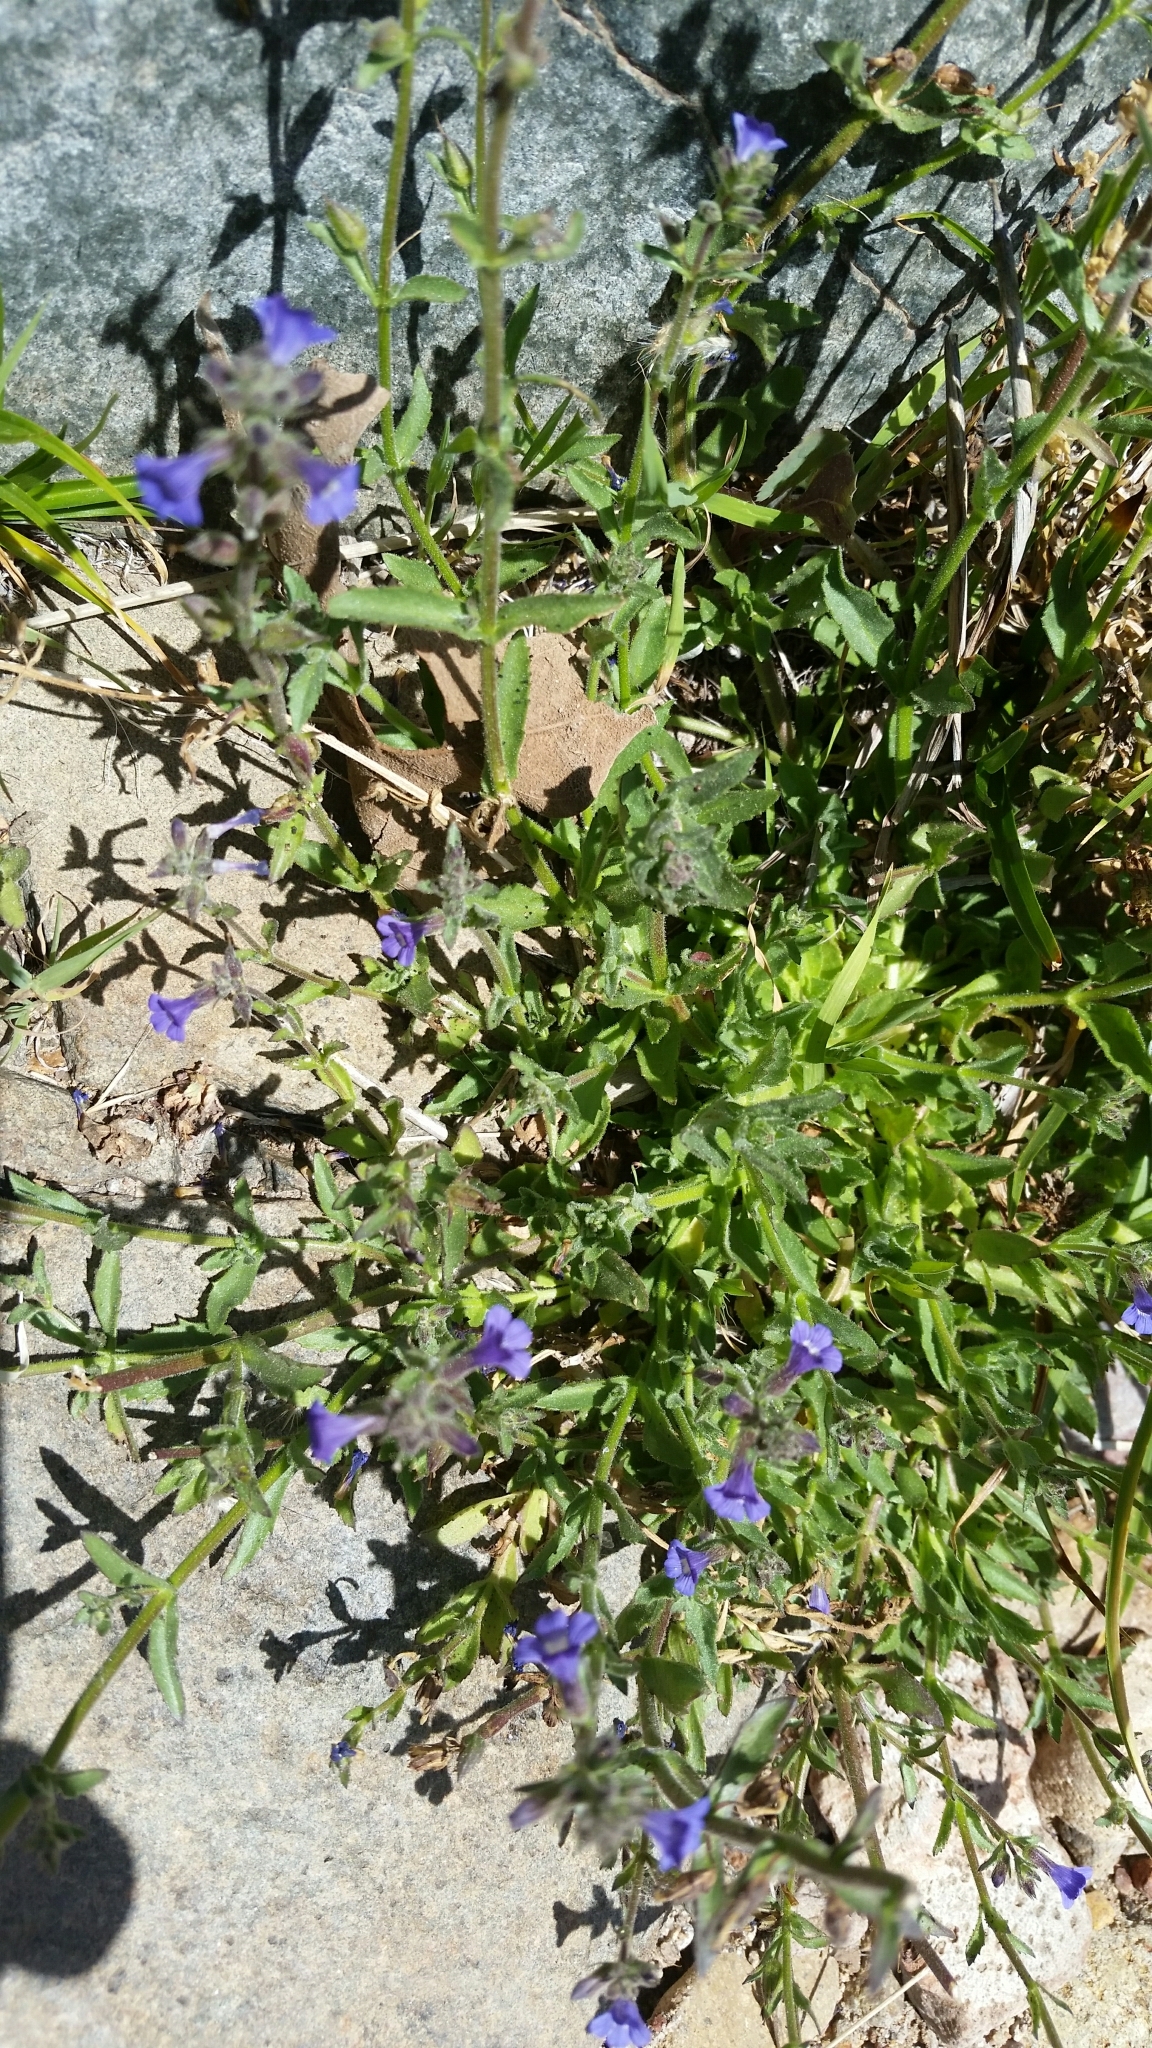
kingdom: Plantae
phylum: Tracheophyta
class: Magnoliopsida
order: Lamiales
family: Plantaginaceae
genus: Stemodia
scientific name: Stemodia durantifolia
